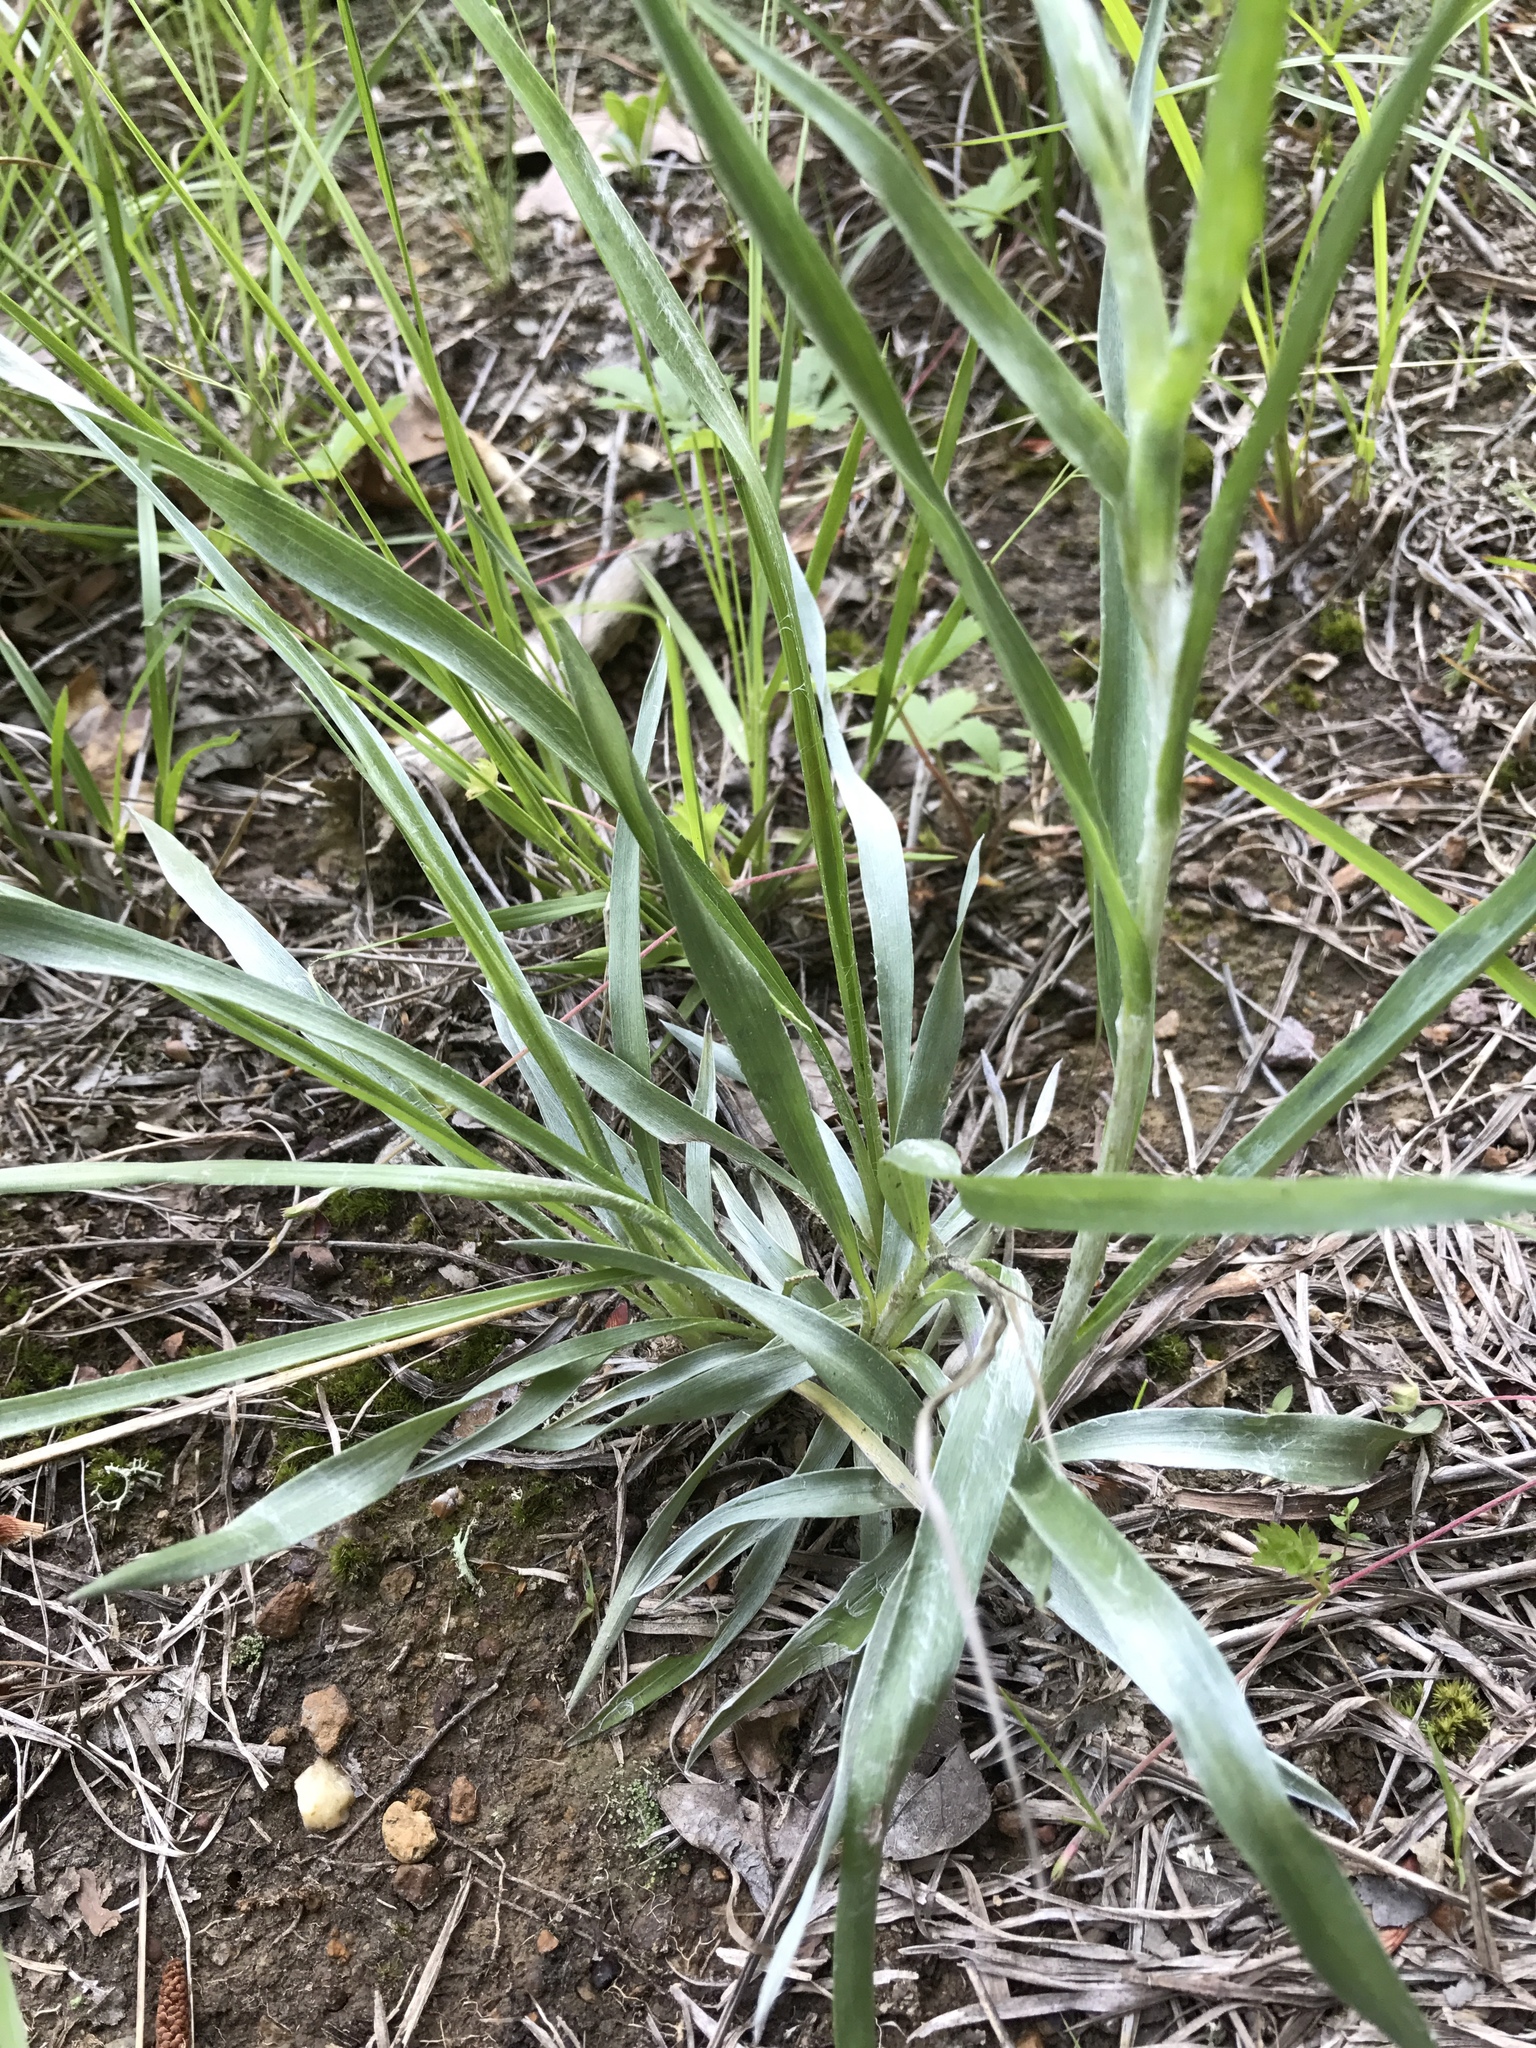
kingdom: Plantae
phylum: Tracheophyta
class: Magnoliopsida
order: Asterales
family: Asteraceae
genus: Pityopsis
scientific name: Pityopsis aspera
